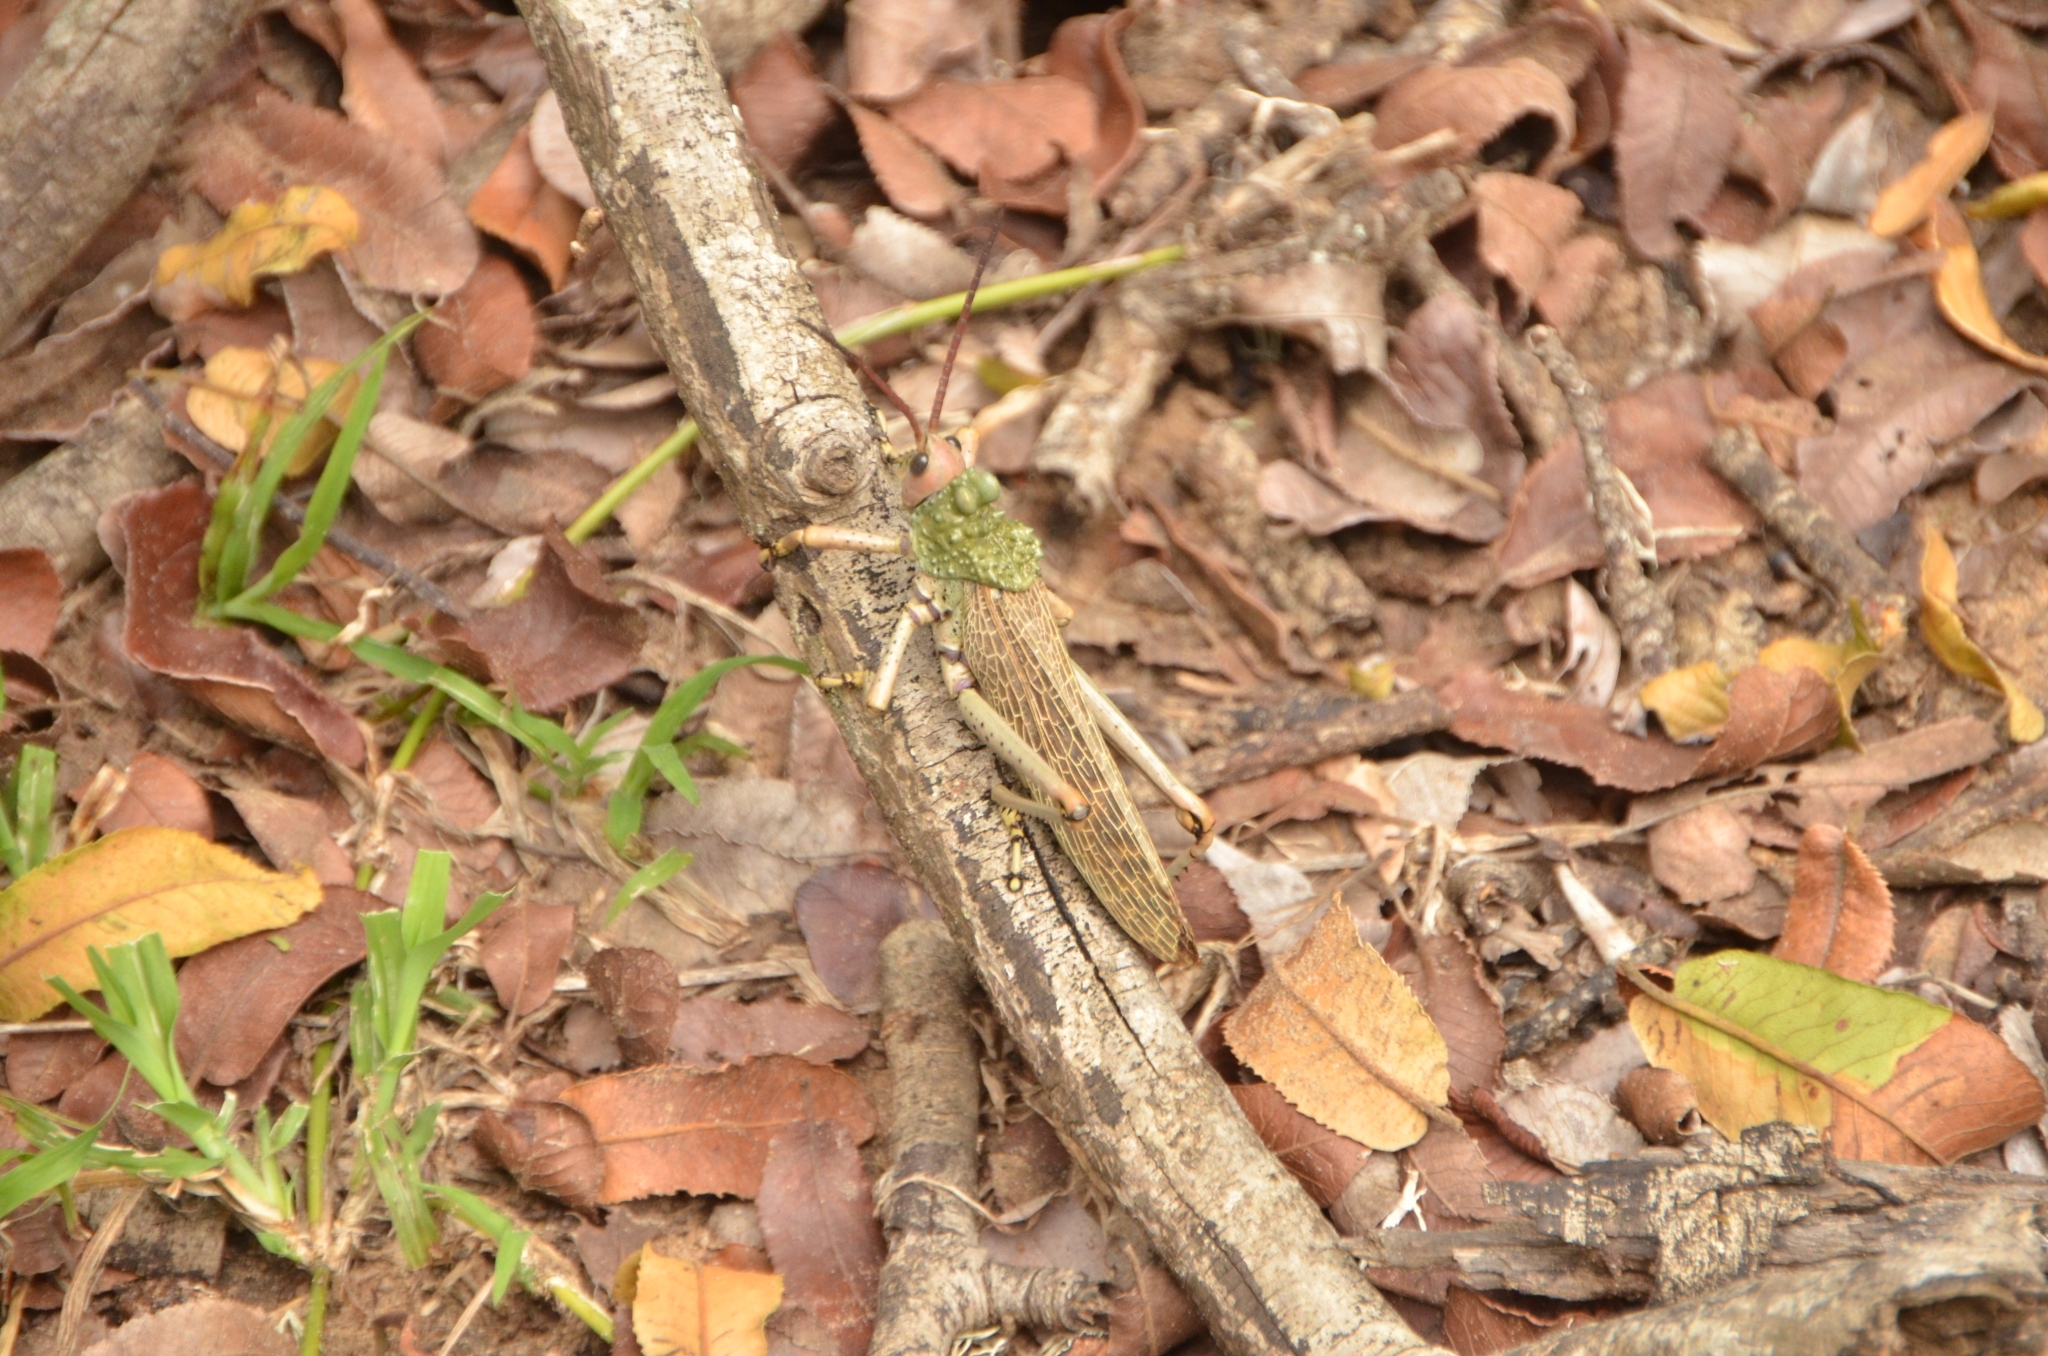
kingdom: Animalia
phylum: Arthropoda
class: Insecta
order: Orthoptera
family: Pyrgomorphidae
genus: Phymateus
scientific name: Phymateus leprosus
